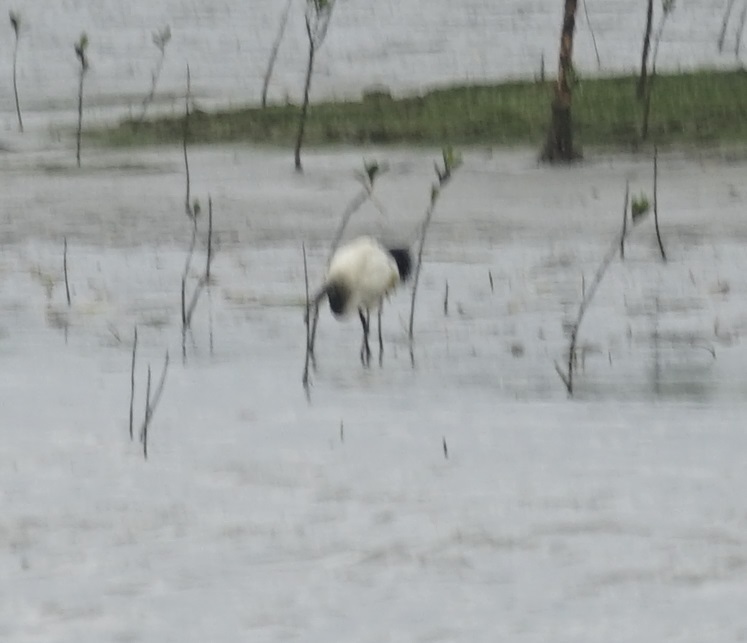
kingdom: Animalia
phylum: Chordata
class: Aves
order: Pelecaniformes
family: Threskiornithidae
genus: Threskiornis
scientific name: Threskiornis aethiopicus
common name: Sacred ibis
